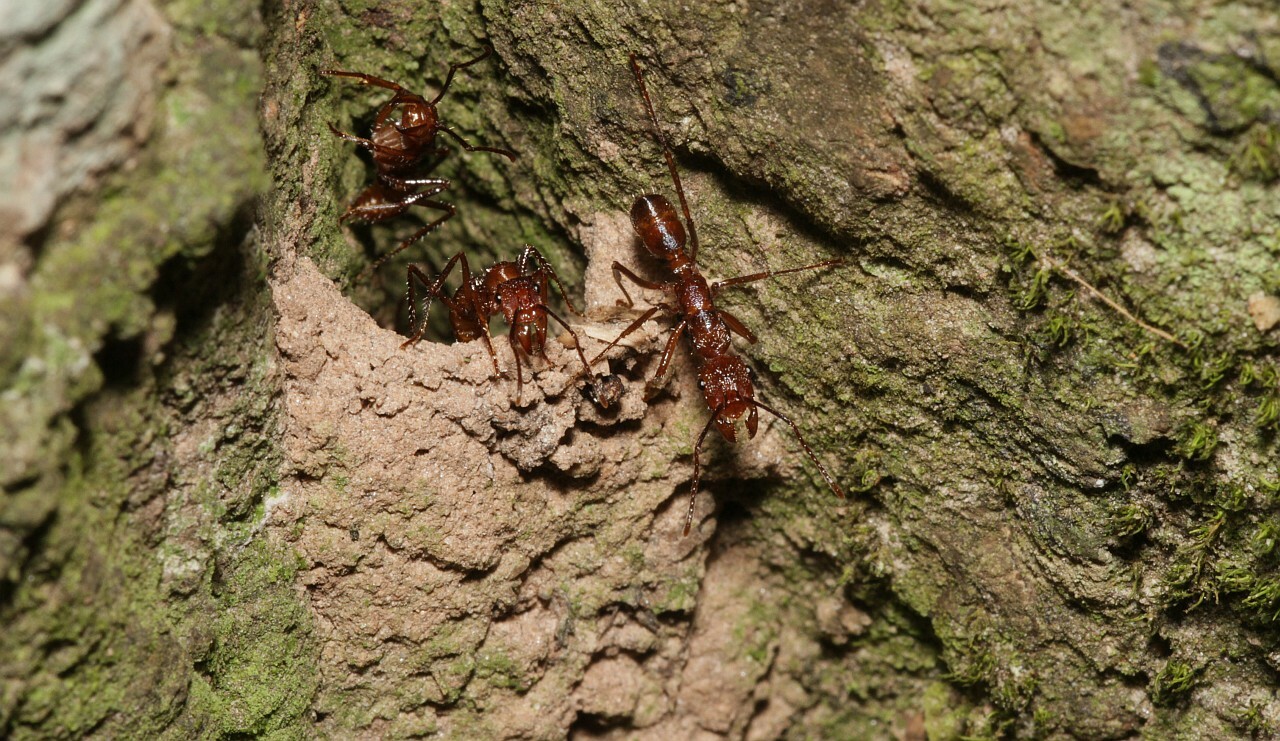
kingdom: Animalia
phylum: Arthropoda
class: Insecta
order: Hymenoptera
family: Formicidae
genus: Ectatomma
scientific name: Ectatomma tuberculatum
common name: Ant
